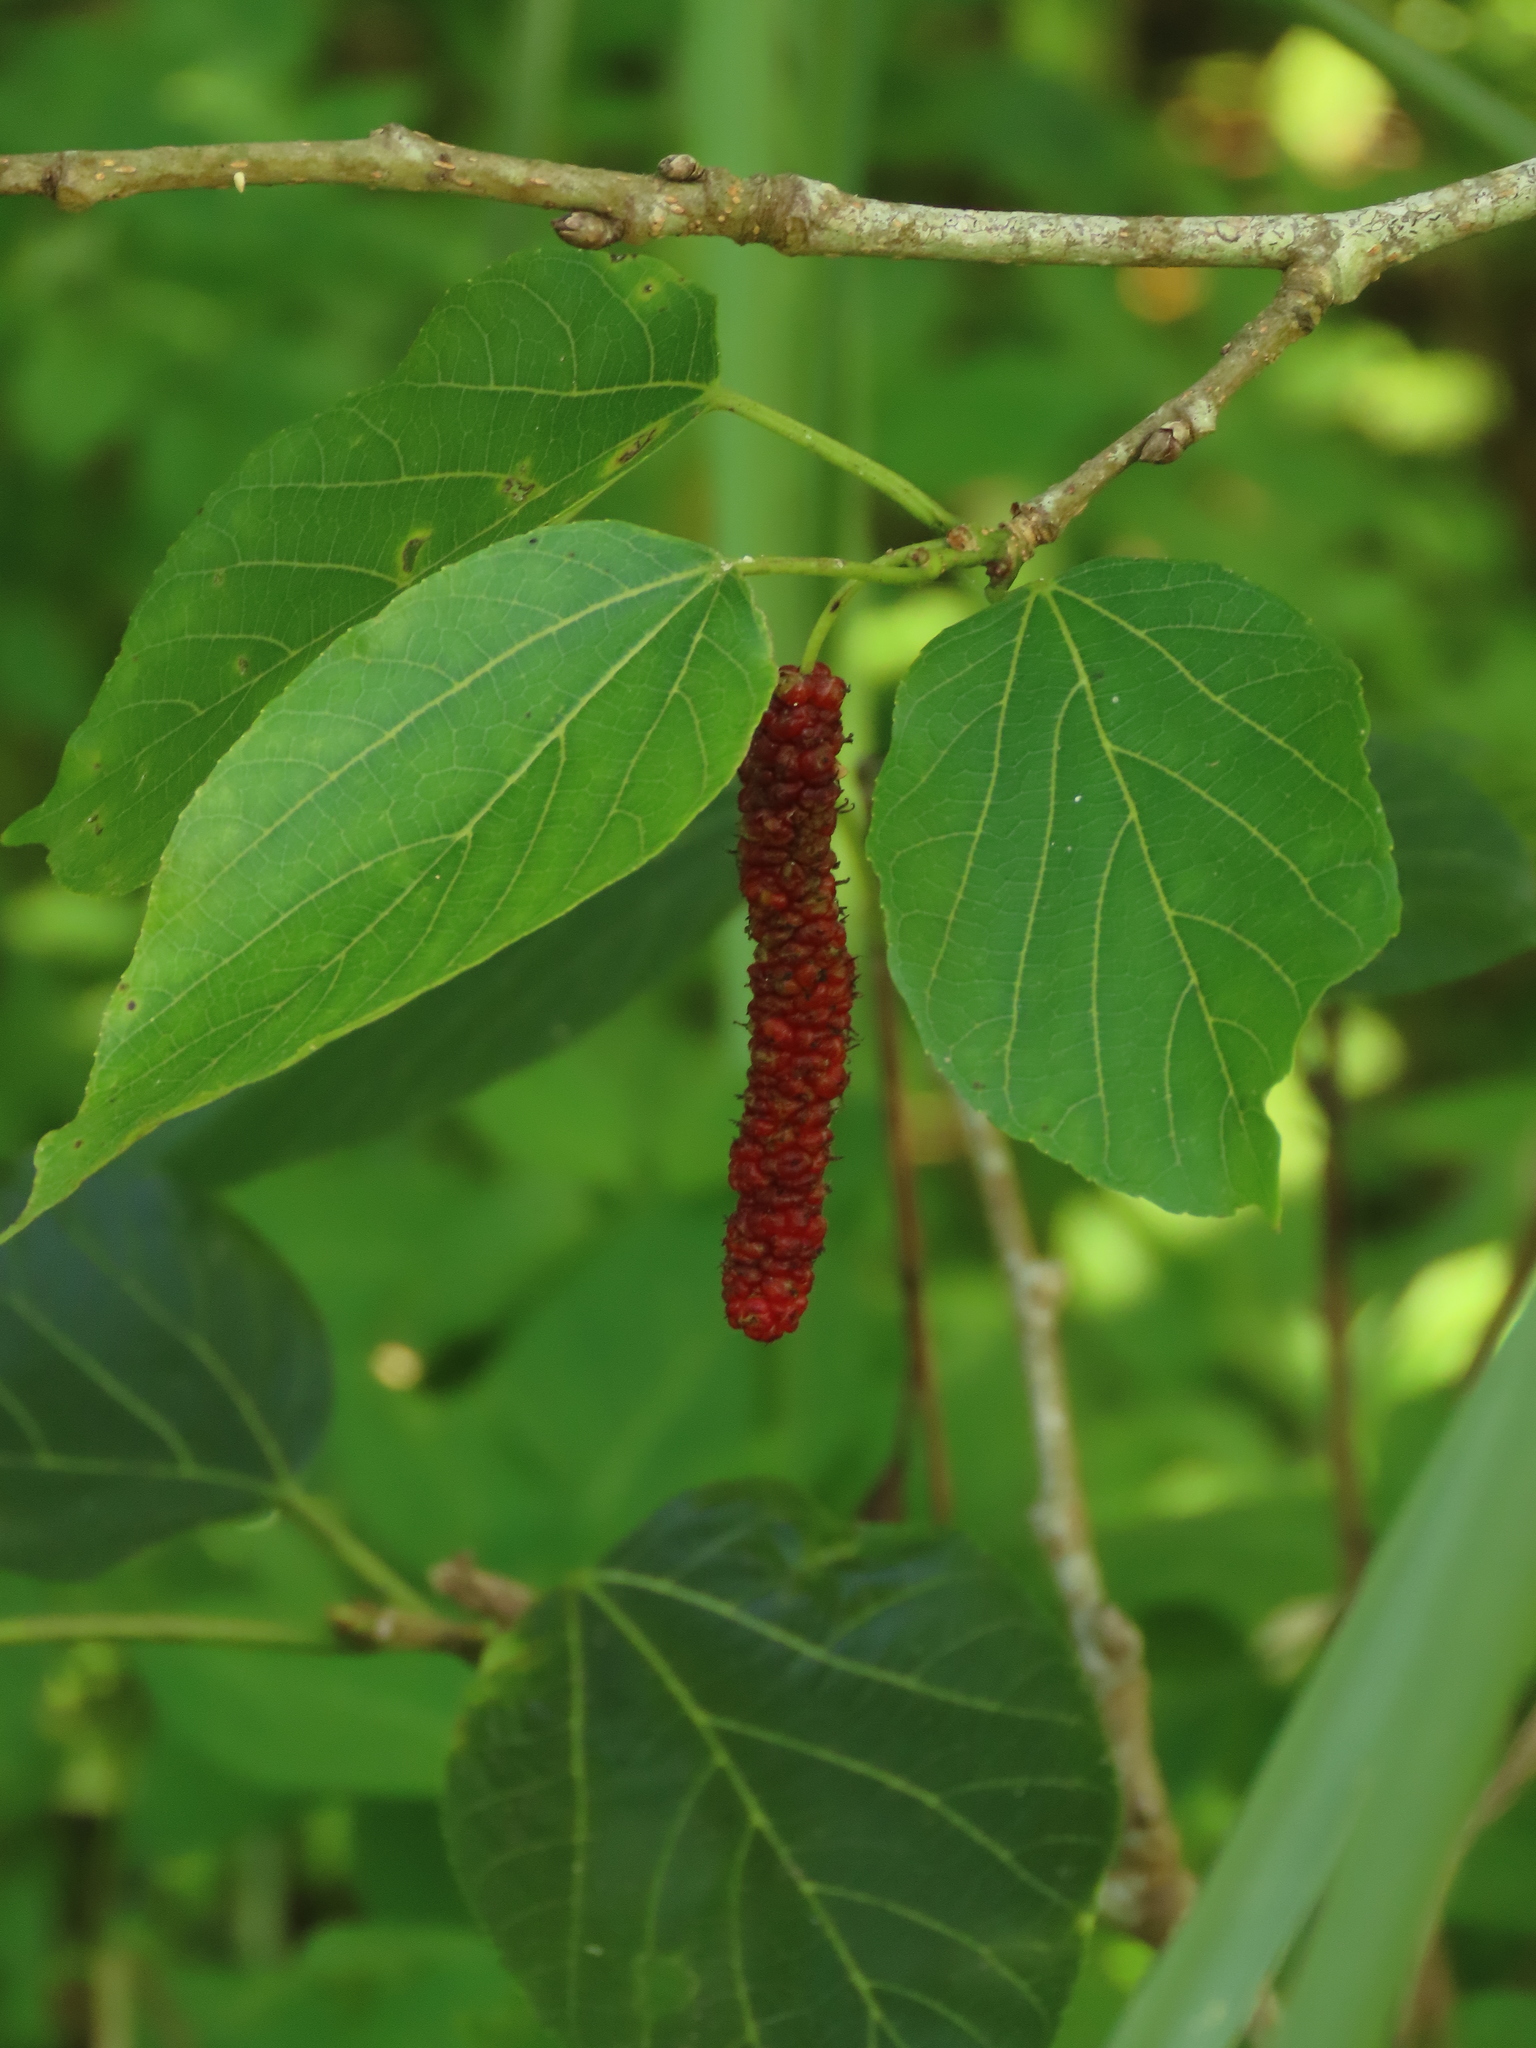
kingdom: Plantae
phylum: Tracheophyta
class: Magnoliopsida
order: Rosales
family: Moraceae
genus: Morus
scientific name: Morus macroura
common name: Himalayan mulberry
